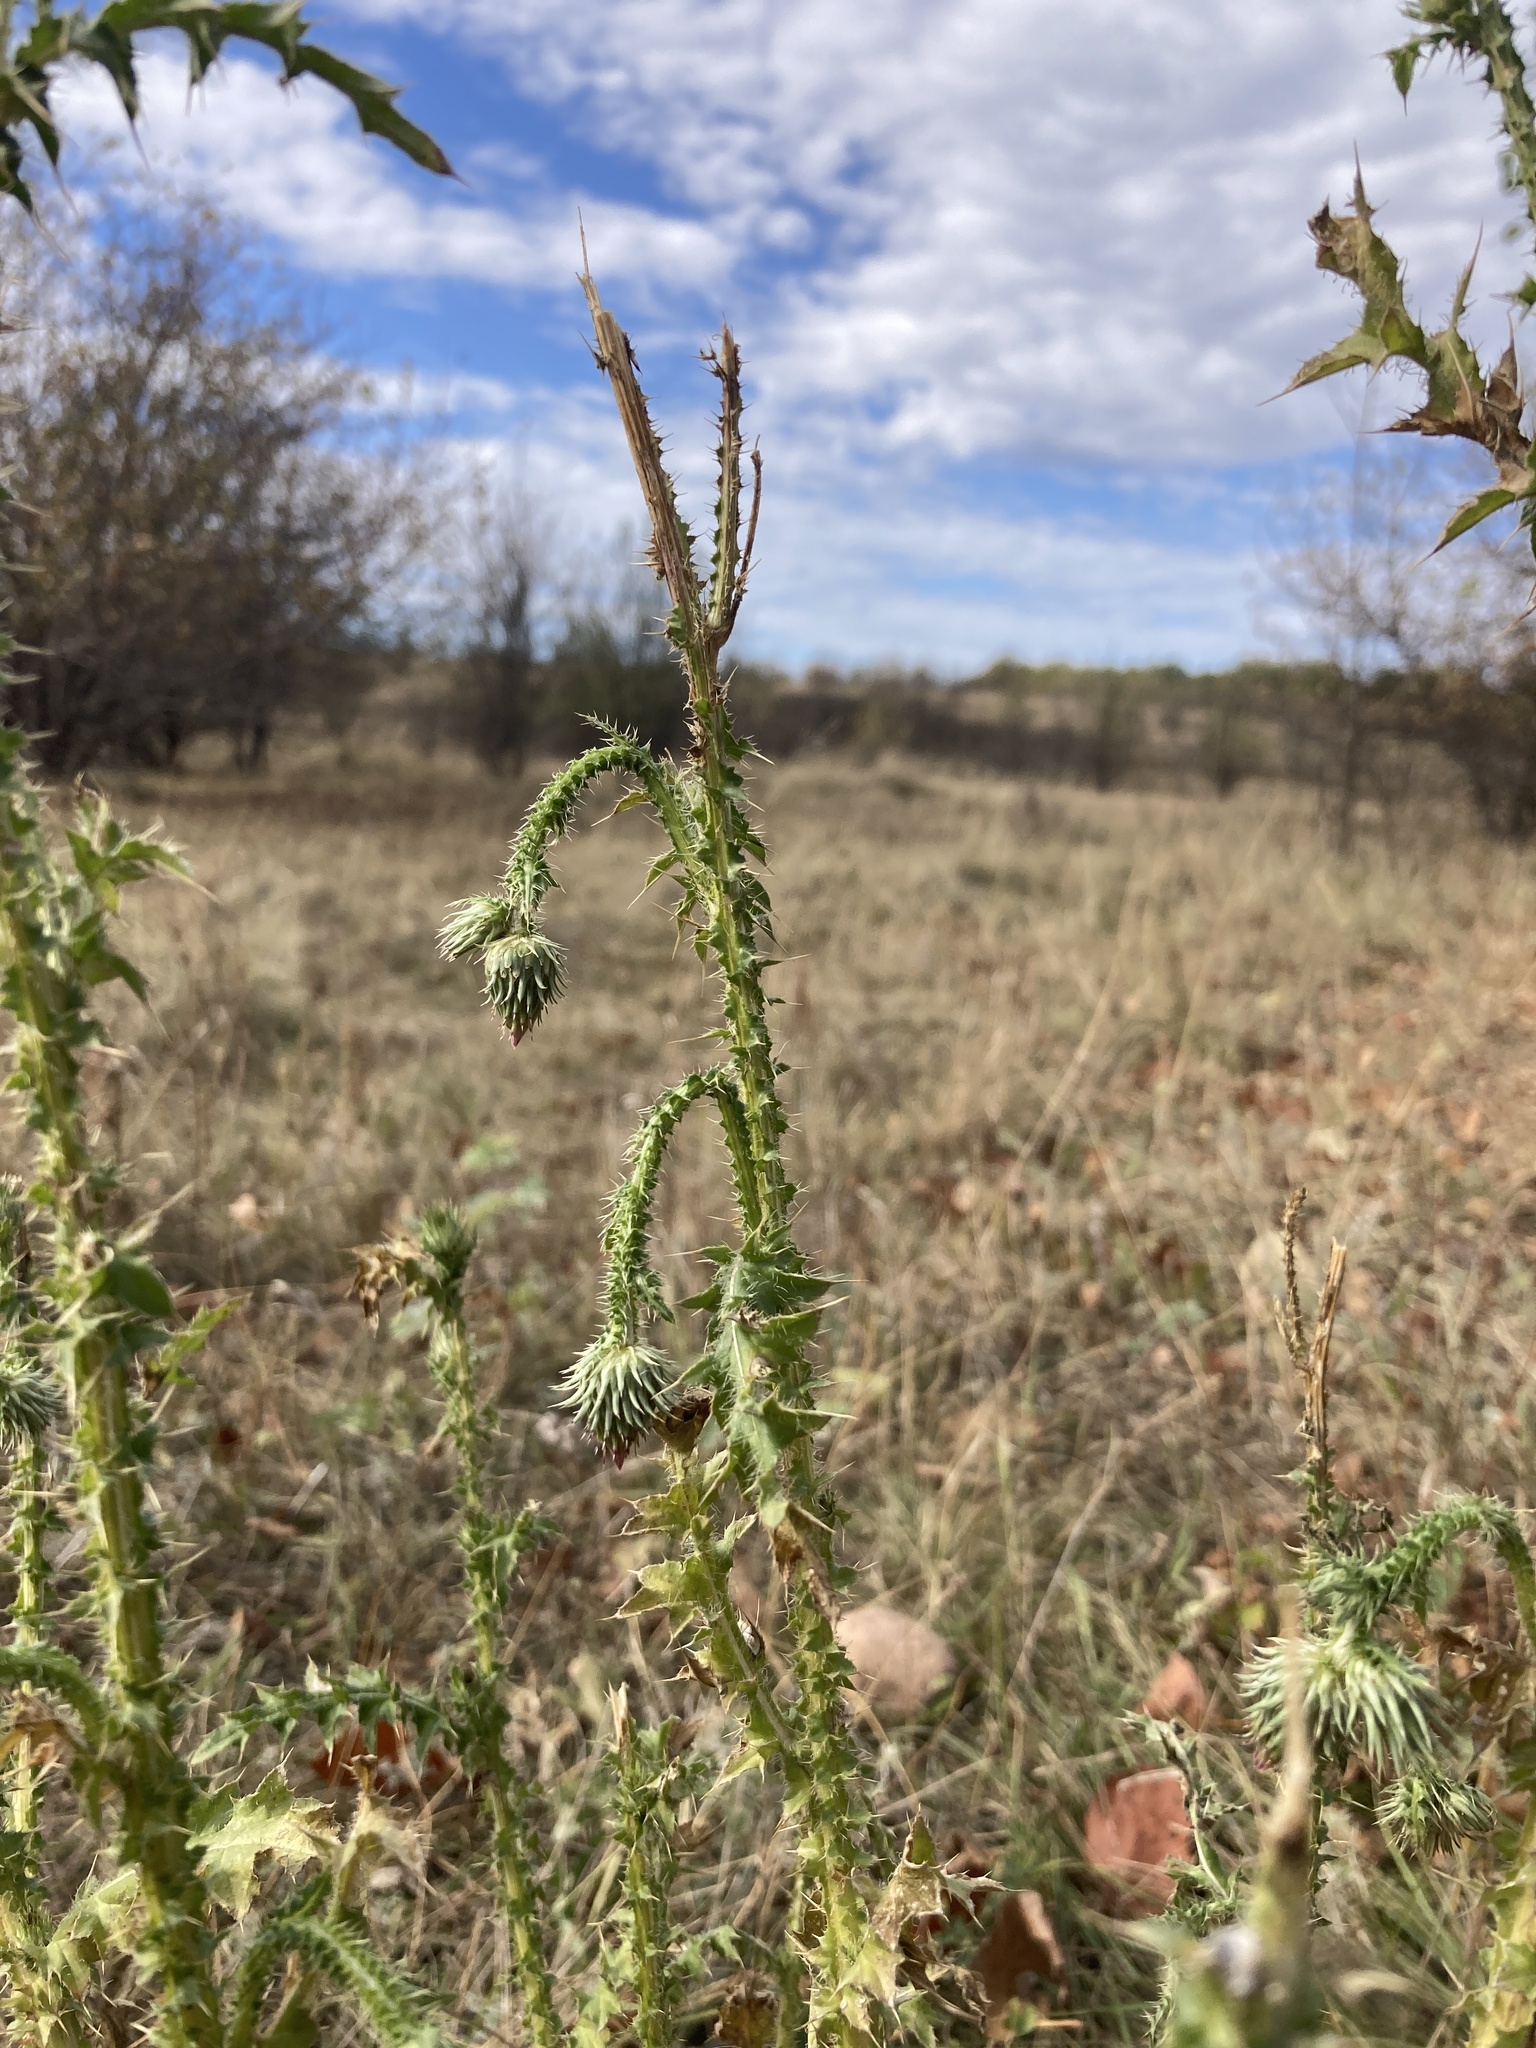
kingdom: Plantae
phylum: Tracheophyta
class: Magnoliopsida
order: Asterales
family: Asteraceae
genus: Carduus
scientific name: Carduus acanthoides
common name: Plumeless thistle
